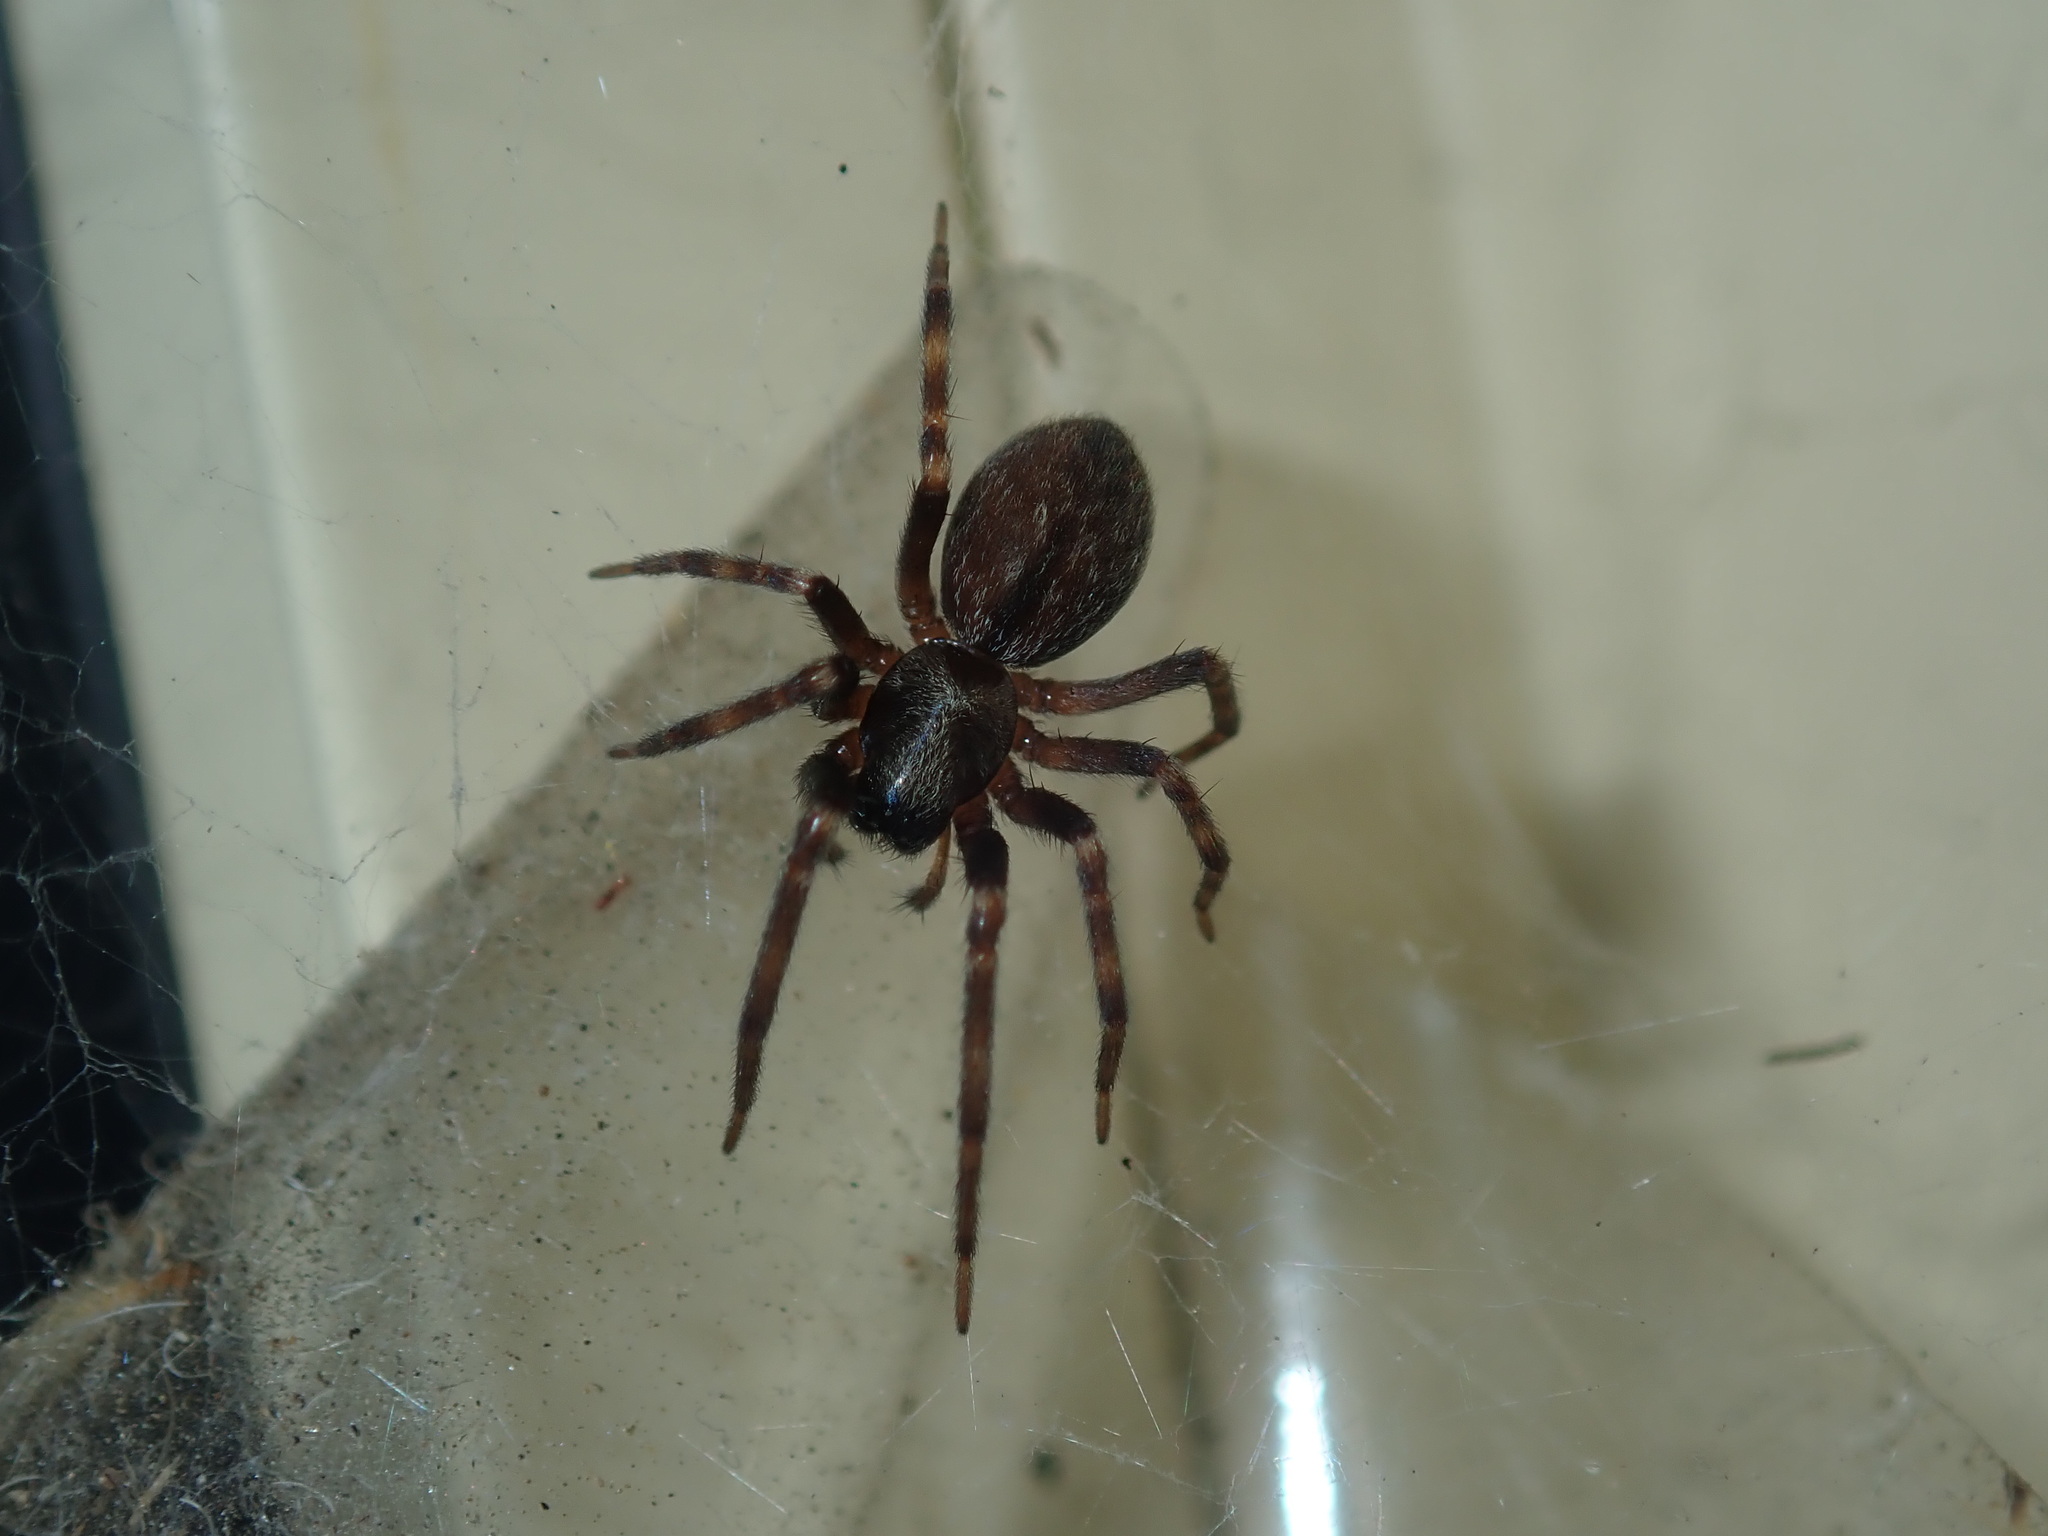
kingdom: Animalia
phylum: Arthropoda
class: Arachnida
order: Araneae
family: Desidae
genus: Badumna
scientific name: Badumna longinqua
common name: Gray house spider
